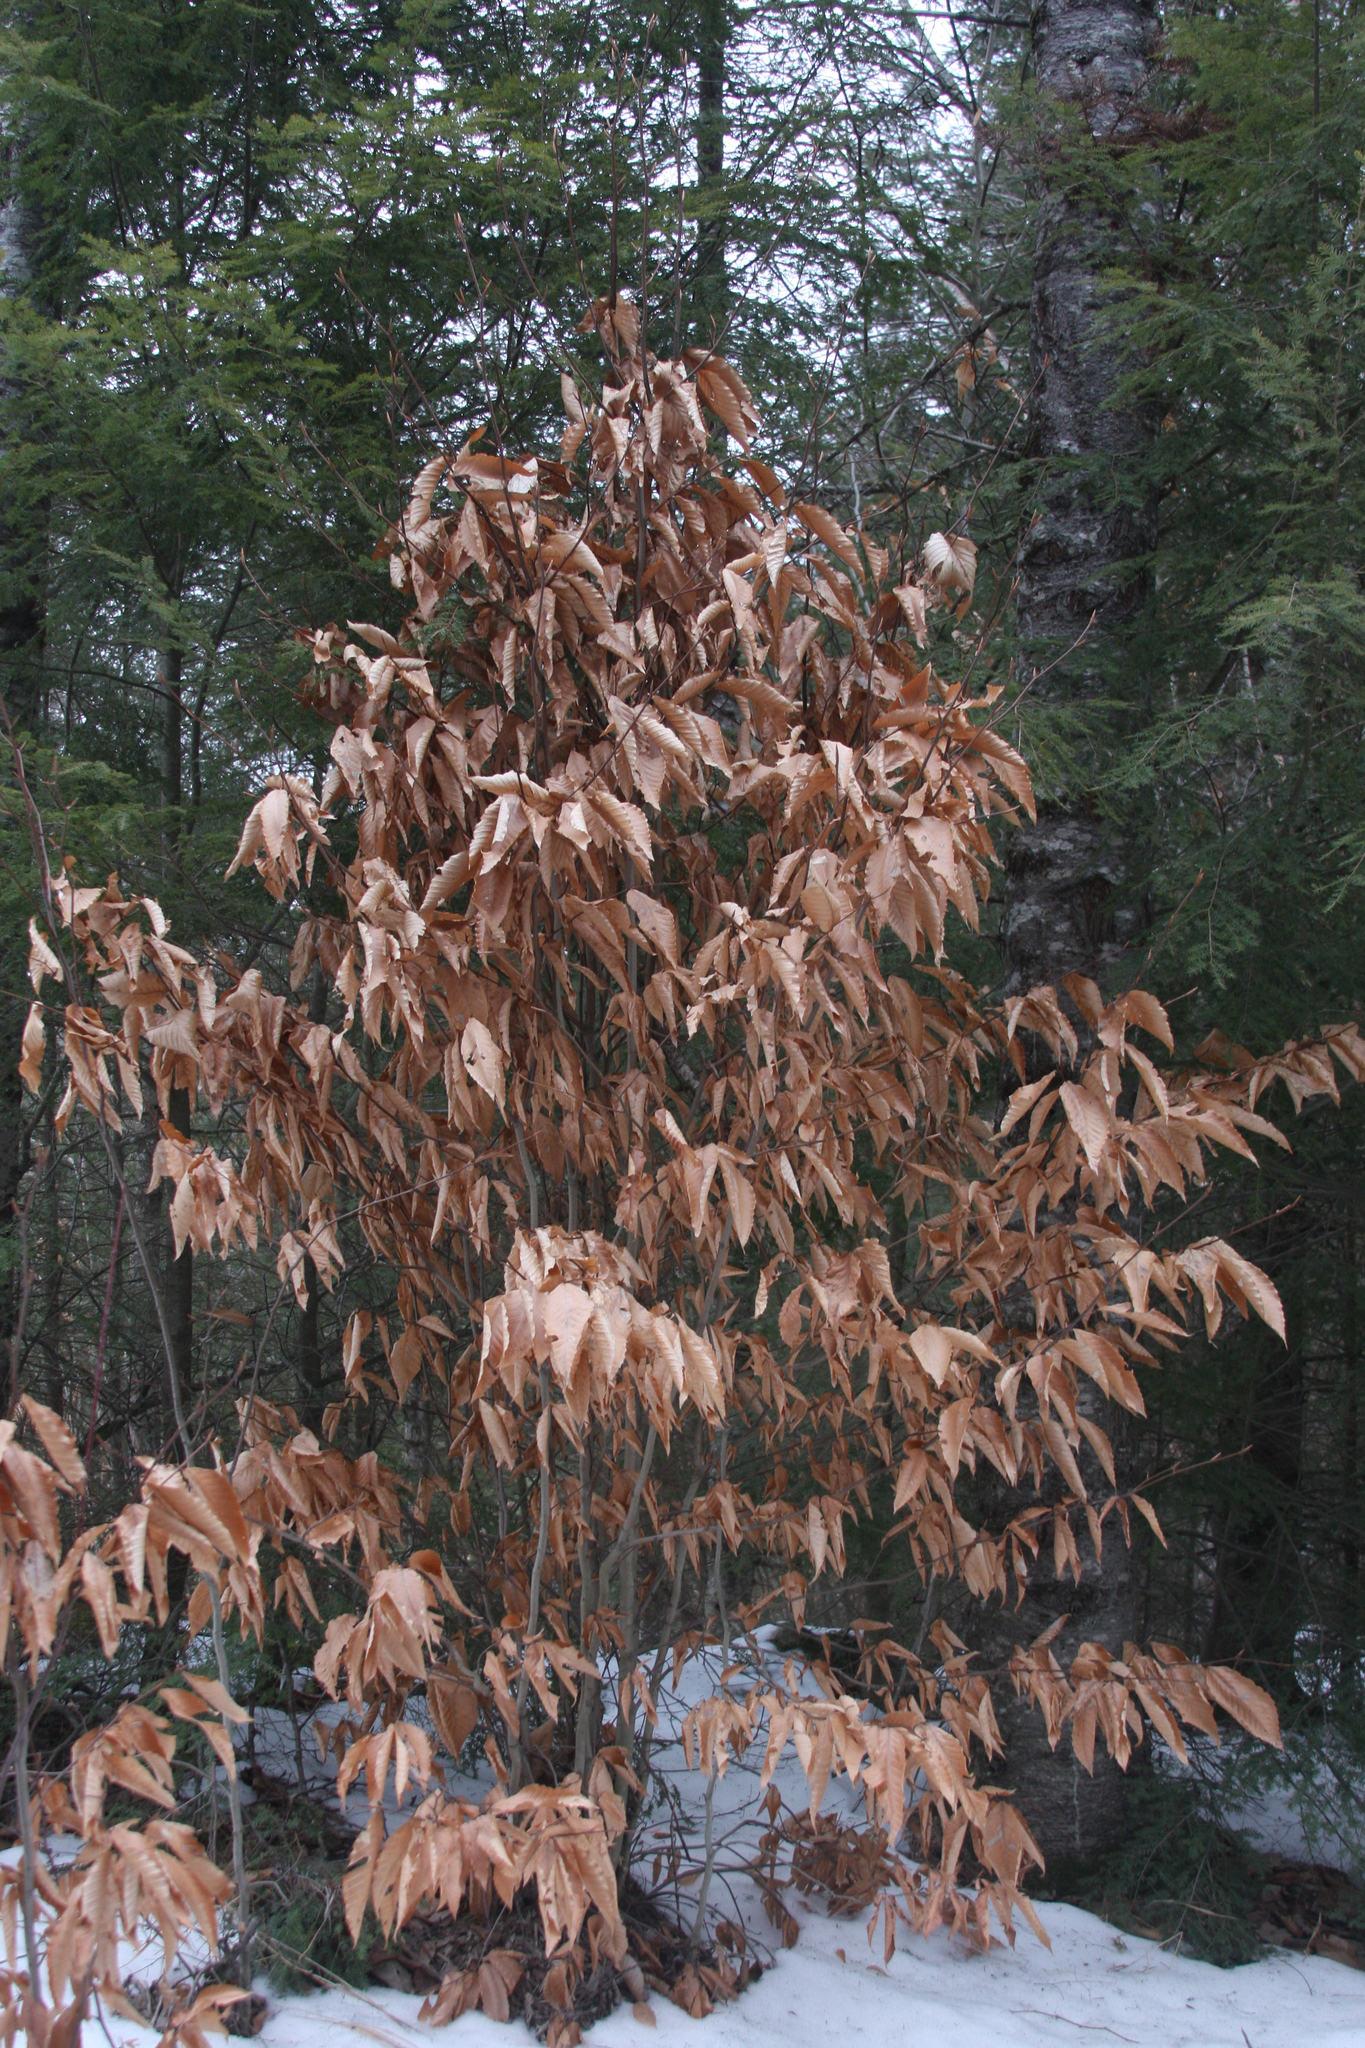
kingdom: Plantae
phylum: Tracheophyta
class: Magnoliopsida
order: Fagales
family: Fagaceae
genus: Fagus
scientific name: Fagus grandifolia
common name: American beech
